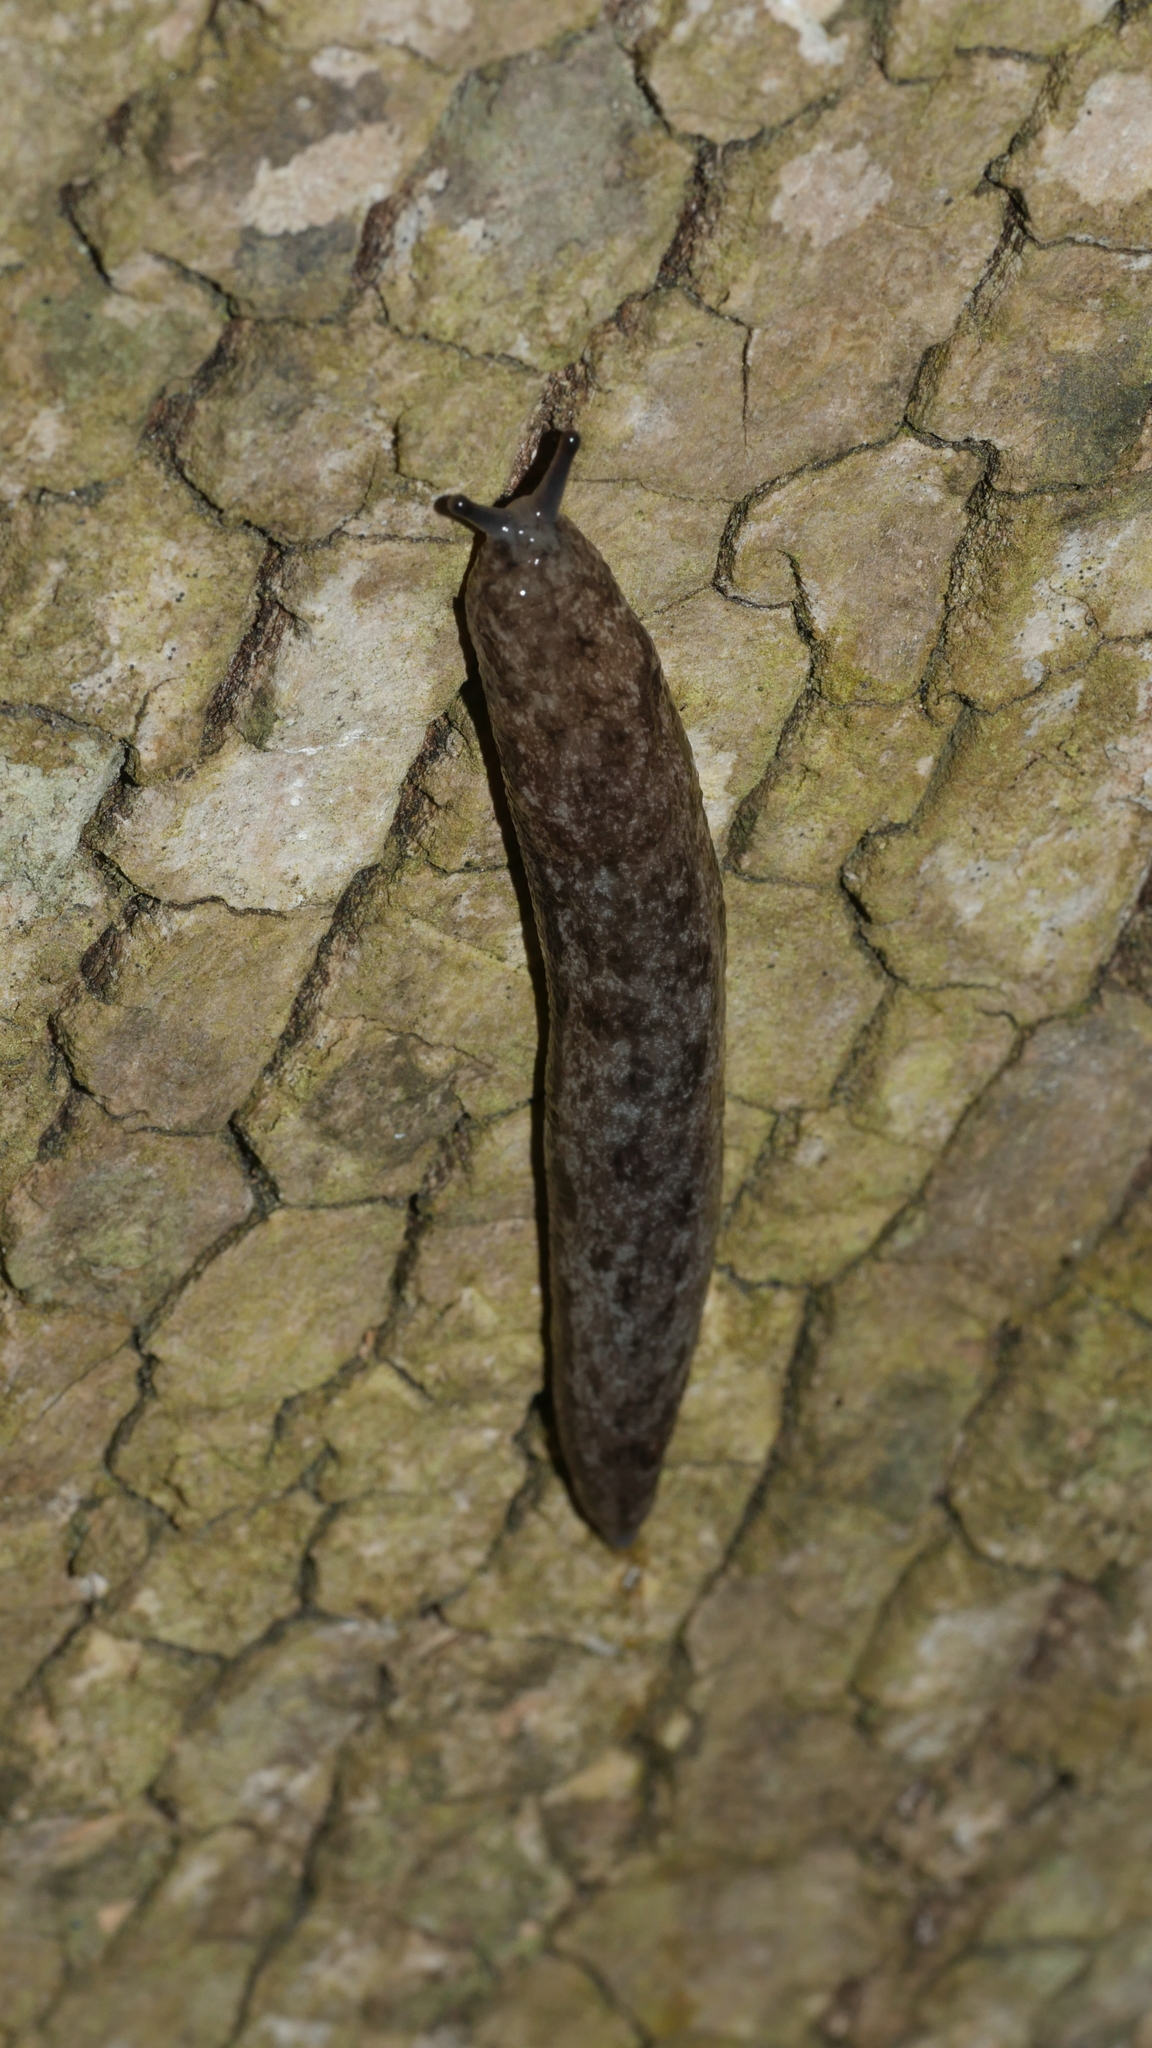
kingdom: Animalia
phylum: Mollusca
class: Gastropoda
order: Stylommatophora
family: Philomycidae
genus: Megapallifera
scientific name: Megapallifera mutabilis
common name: Changeable mantleslug
